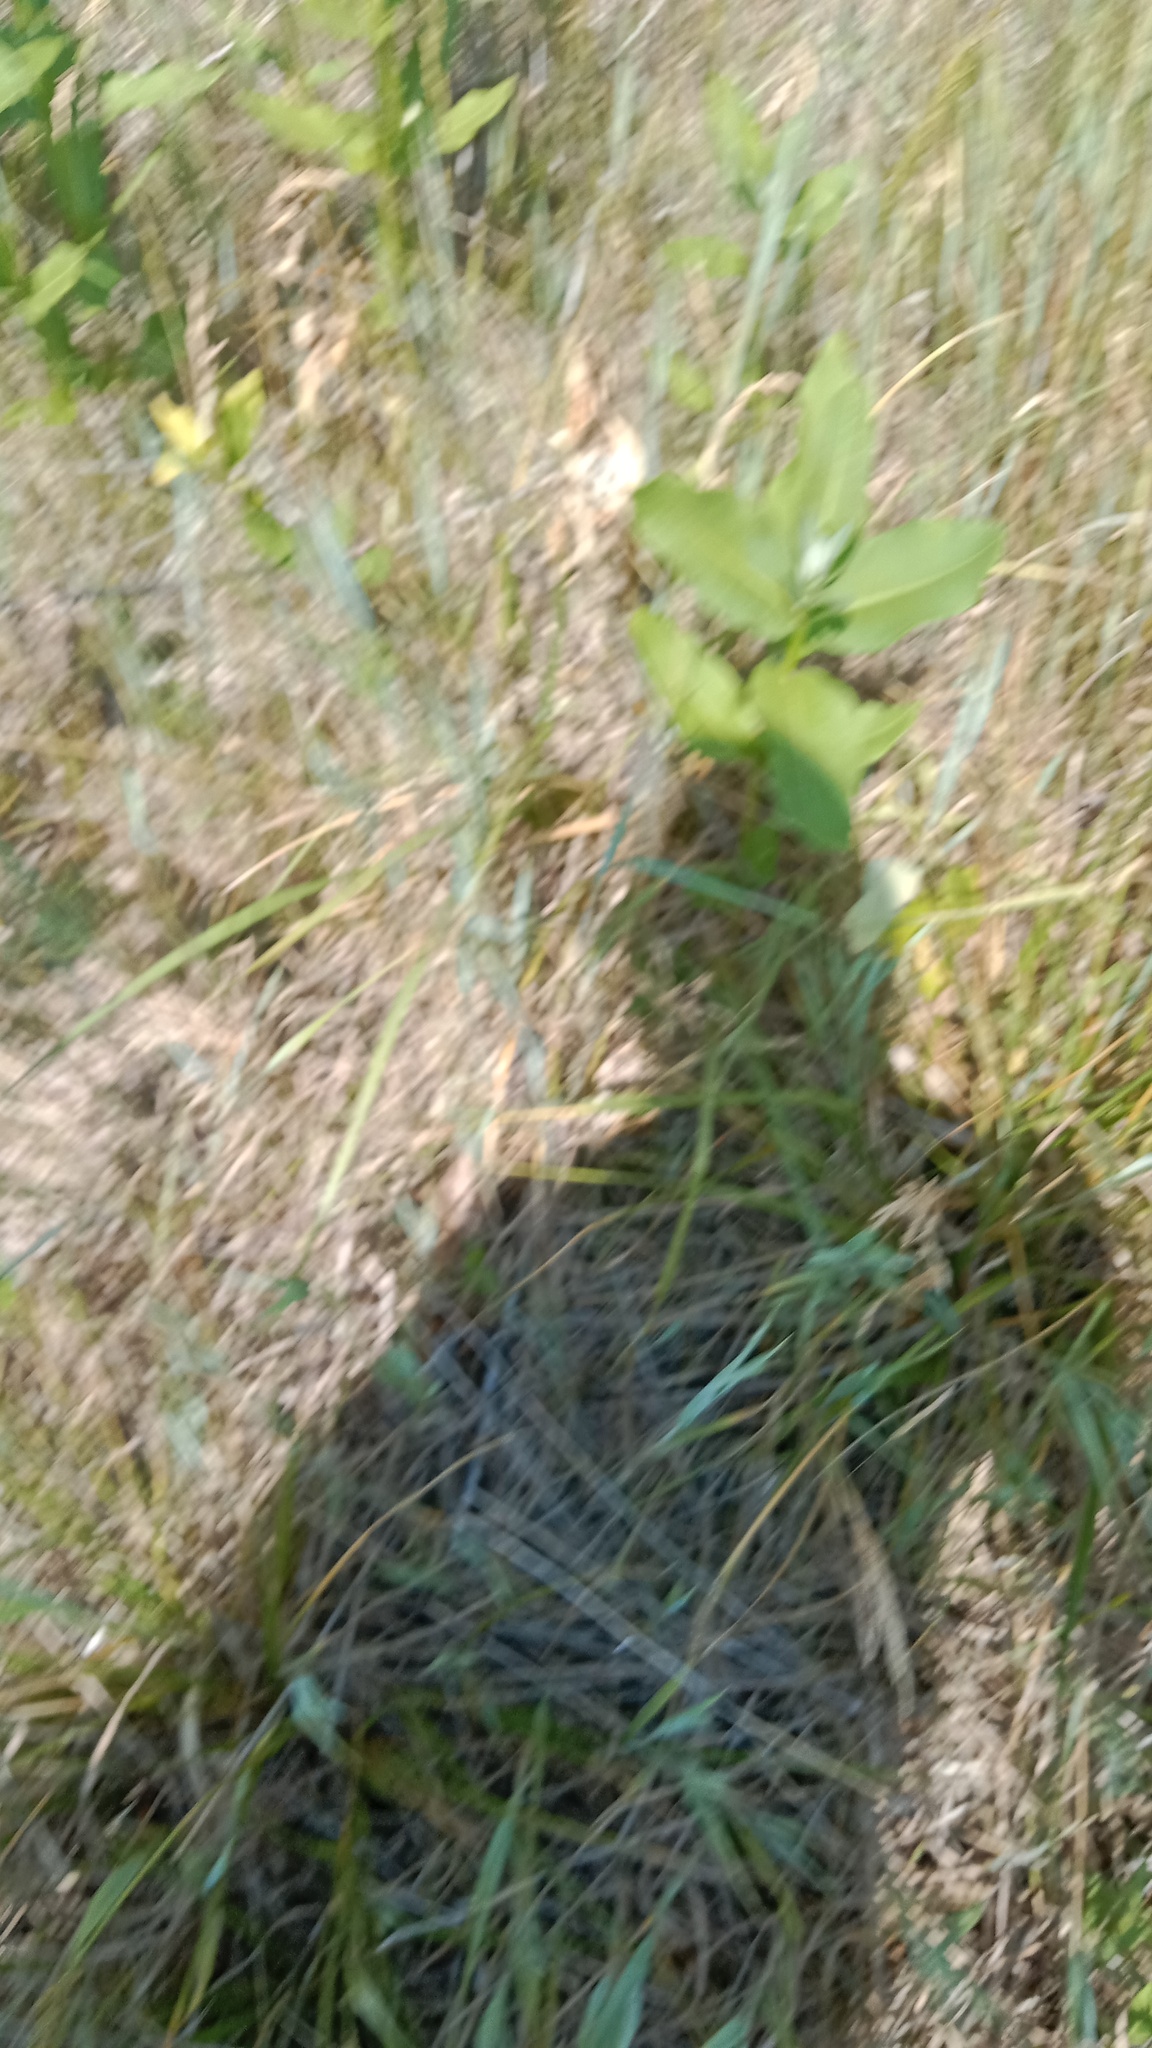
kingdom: Plantae
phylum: Tracheophyta
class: Magnoliopsida
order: Gentianales
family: Apocynaceae
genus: Asclepias
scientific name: Asclepias syriaca
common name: Common milkweed
